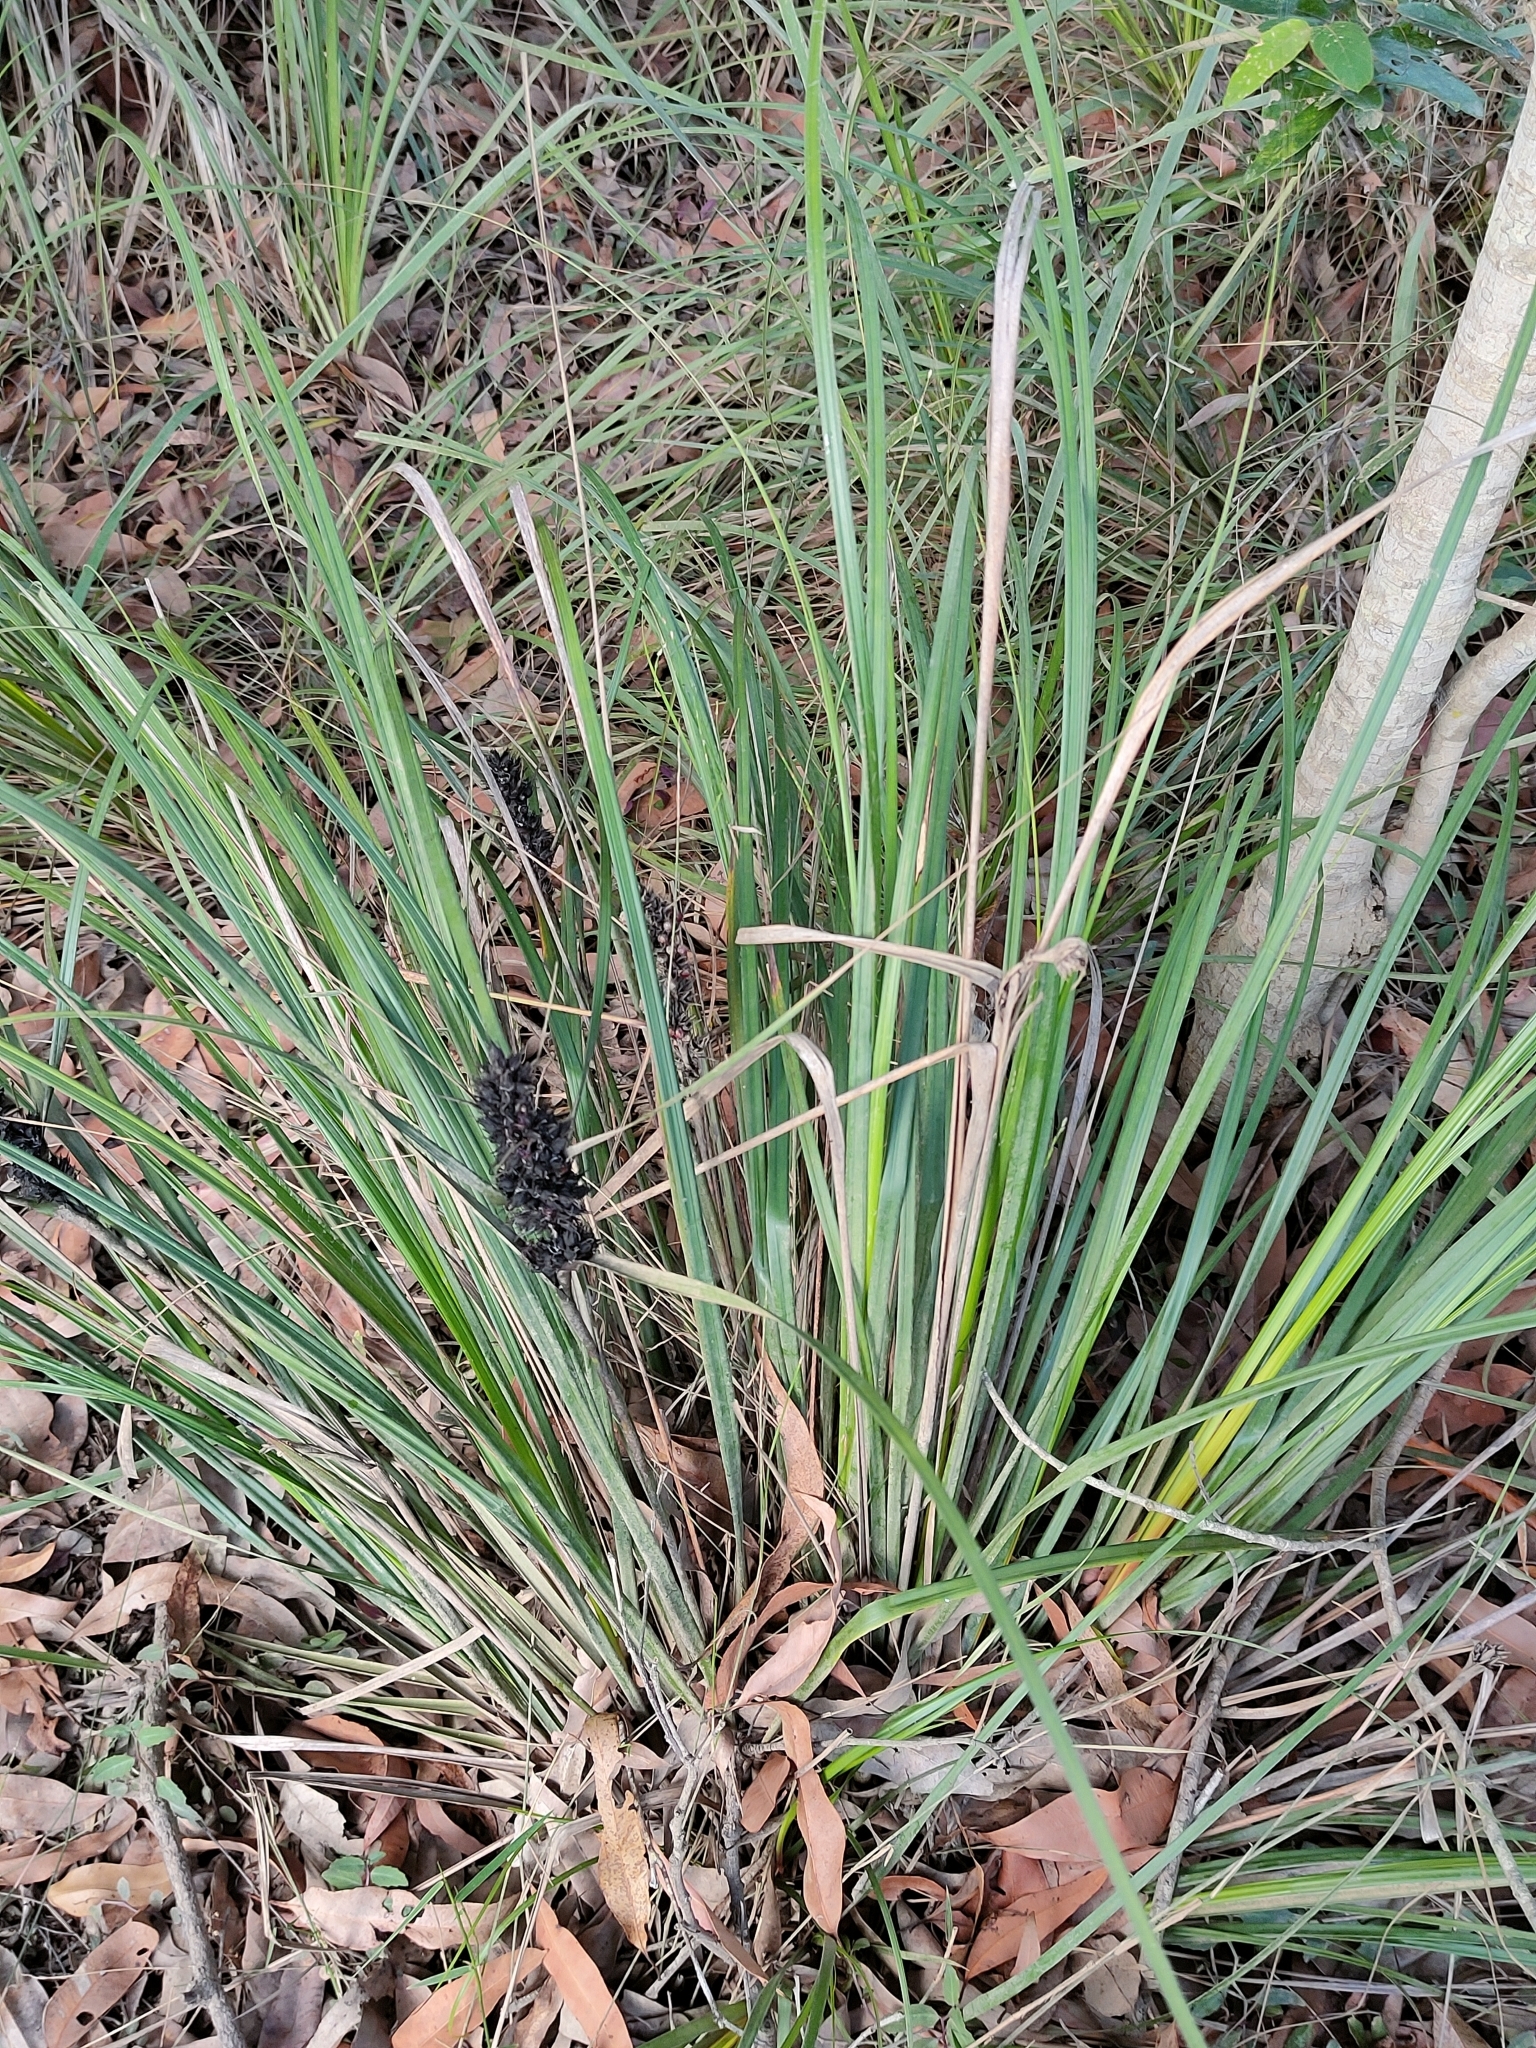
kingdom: Plantae
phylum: Tracheophyta
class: Liliopsida
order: Poales
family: Cyperaceae
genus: Gahnia
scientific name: Gahnia aspera
